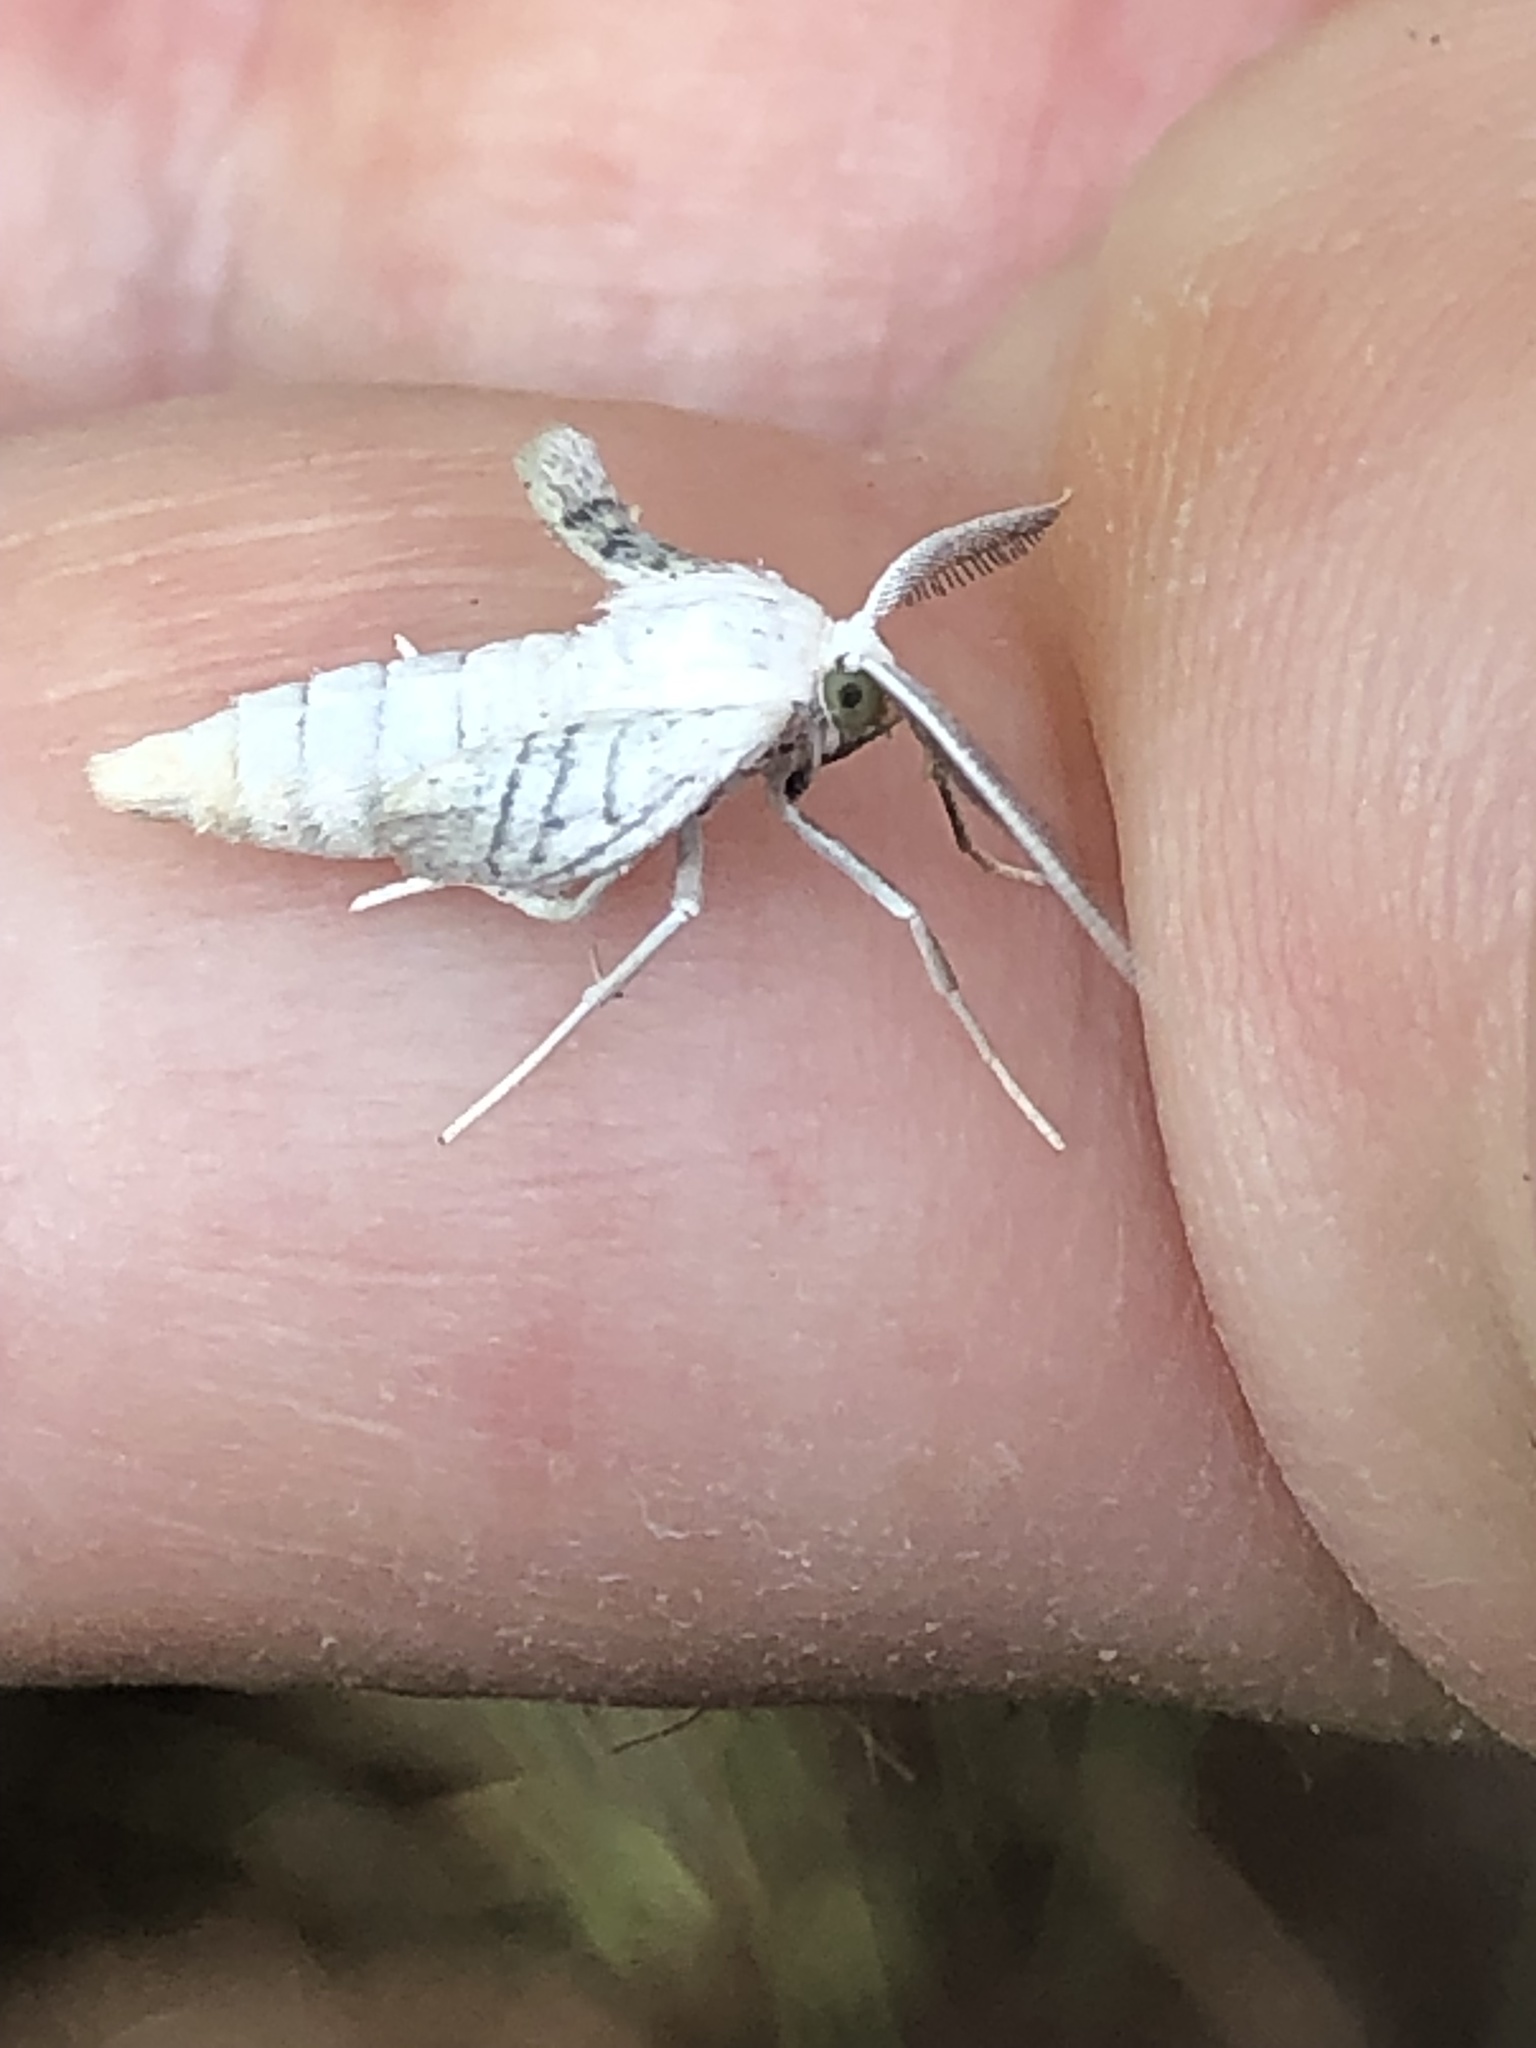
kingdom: Animalia
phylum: Arthropoda
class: Insecta
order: Lepidoptera
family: Geometridae
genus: Cabera
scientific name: Cabera pusaria
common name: Common white wave
